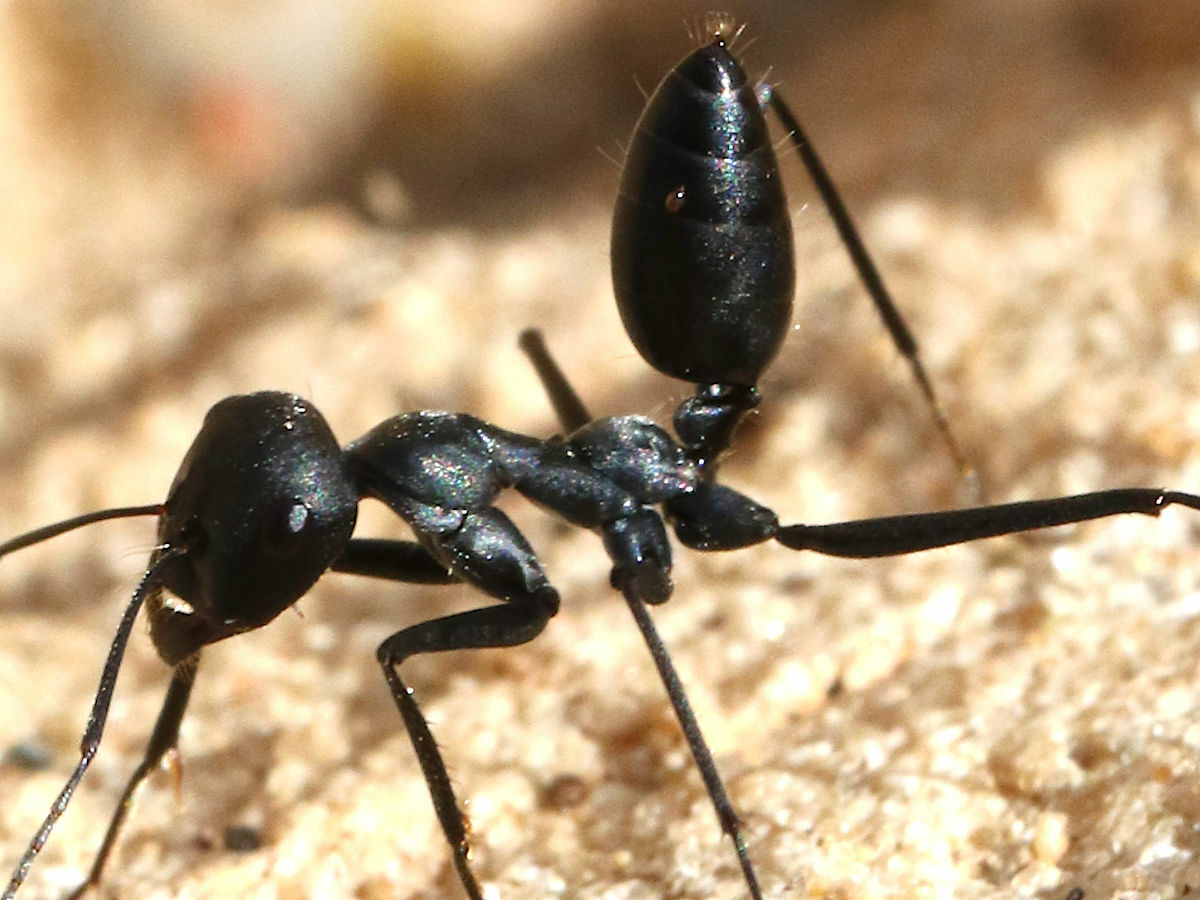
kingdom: Animalia
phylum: Arthropoda
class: Insecta
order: Hymenoptera
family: Formicidae
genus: Messor
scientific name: Messor capitatus
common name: European seed harvesting ant
